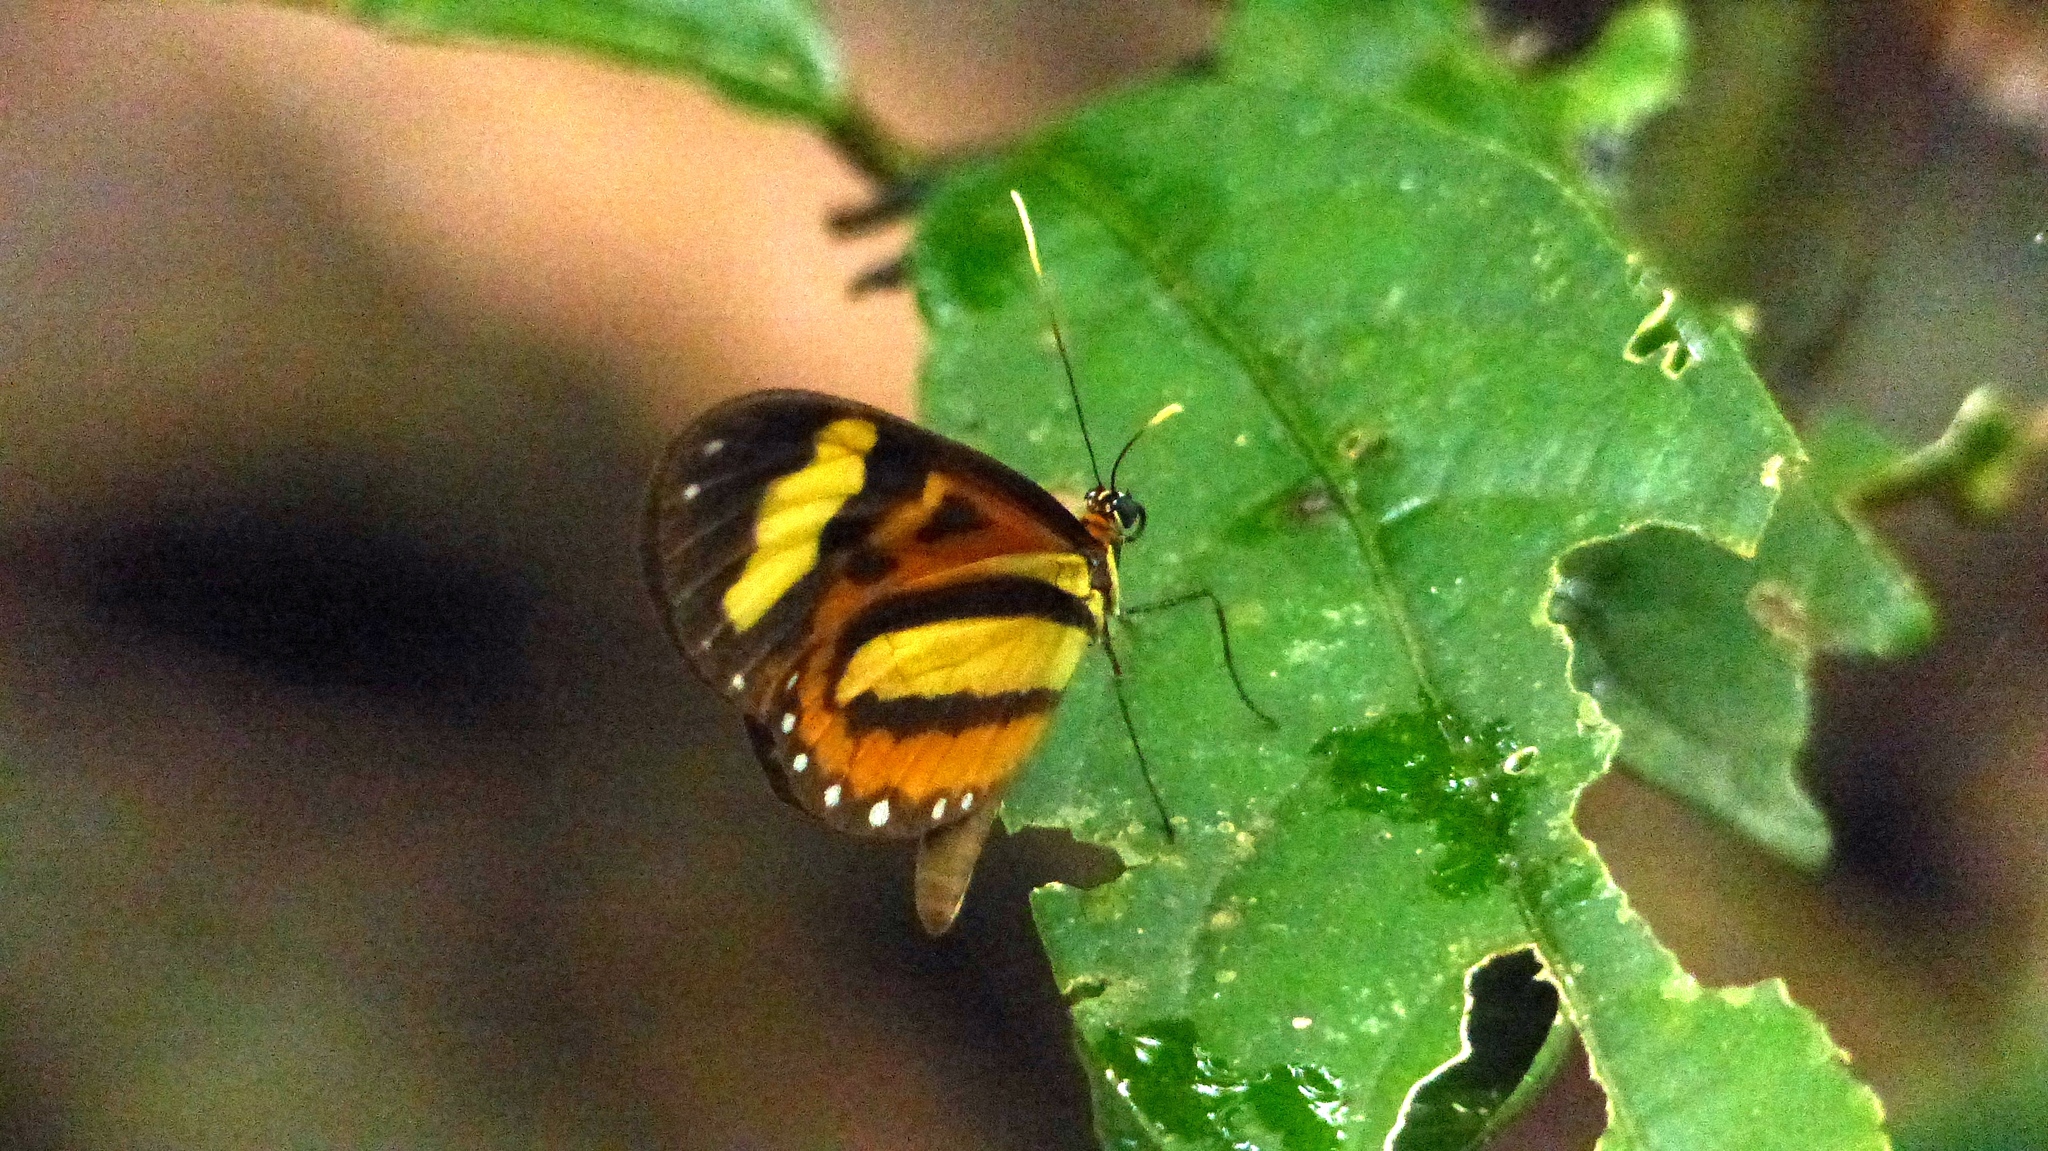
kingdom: Animalia
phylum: Arthropoda
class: Insecta
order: Lepidoptera
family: Nymphalidae
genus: Hypothyris
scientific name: Hypothyris euclea
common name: Euclea tigerwing
